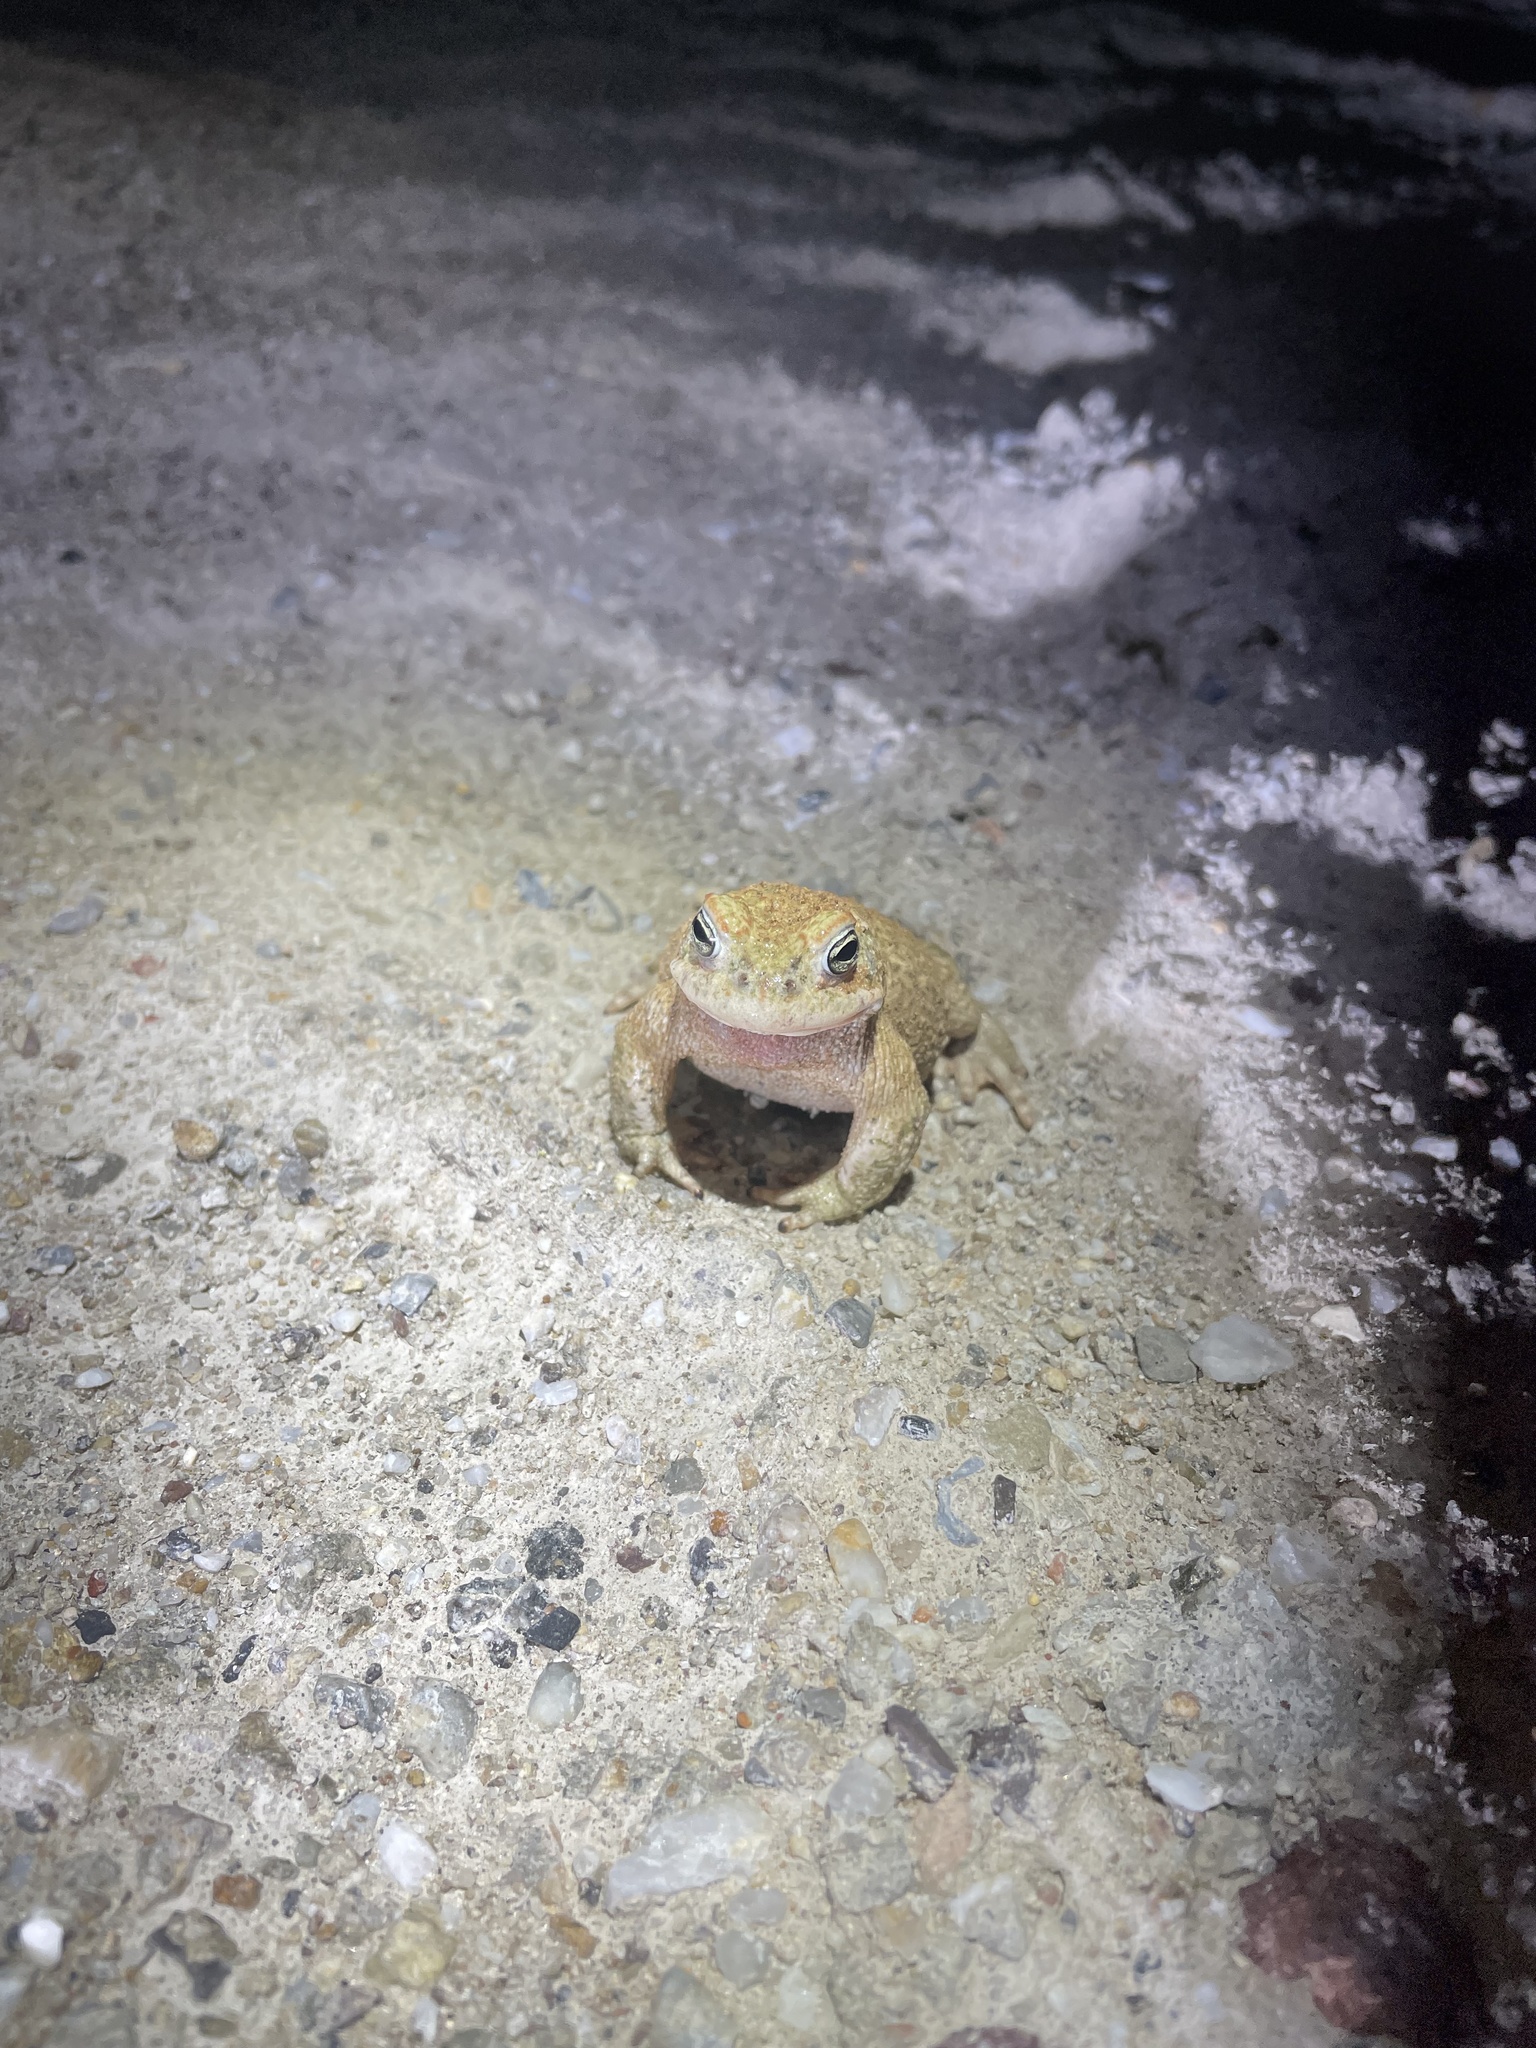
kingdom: Animalia
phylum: Chordata
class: Amphibia
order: Anura
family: Bufonidae
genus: Epidalea
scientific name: Epidalea calamita
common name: Natterjack toad
